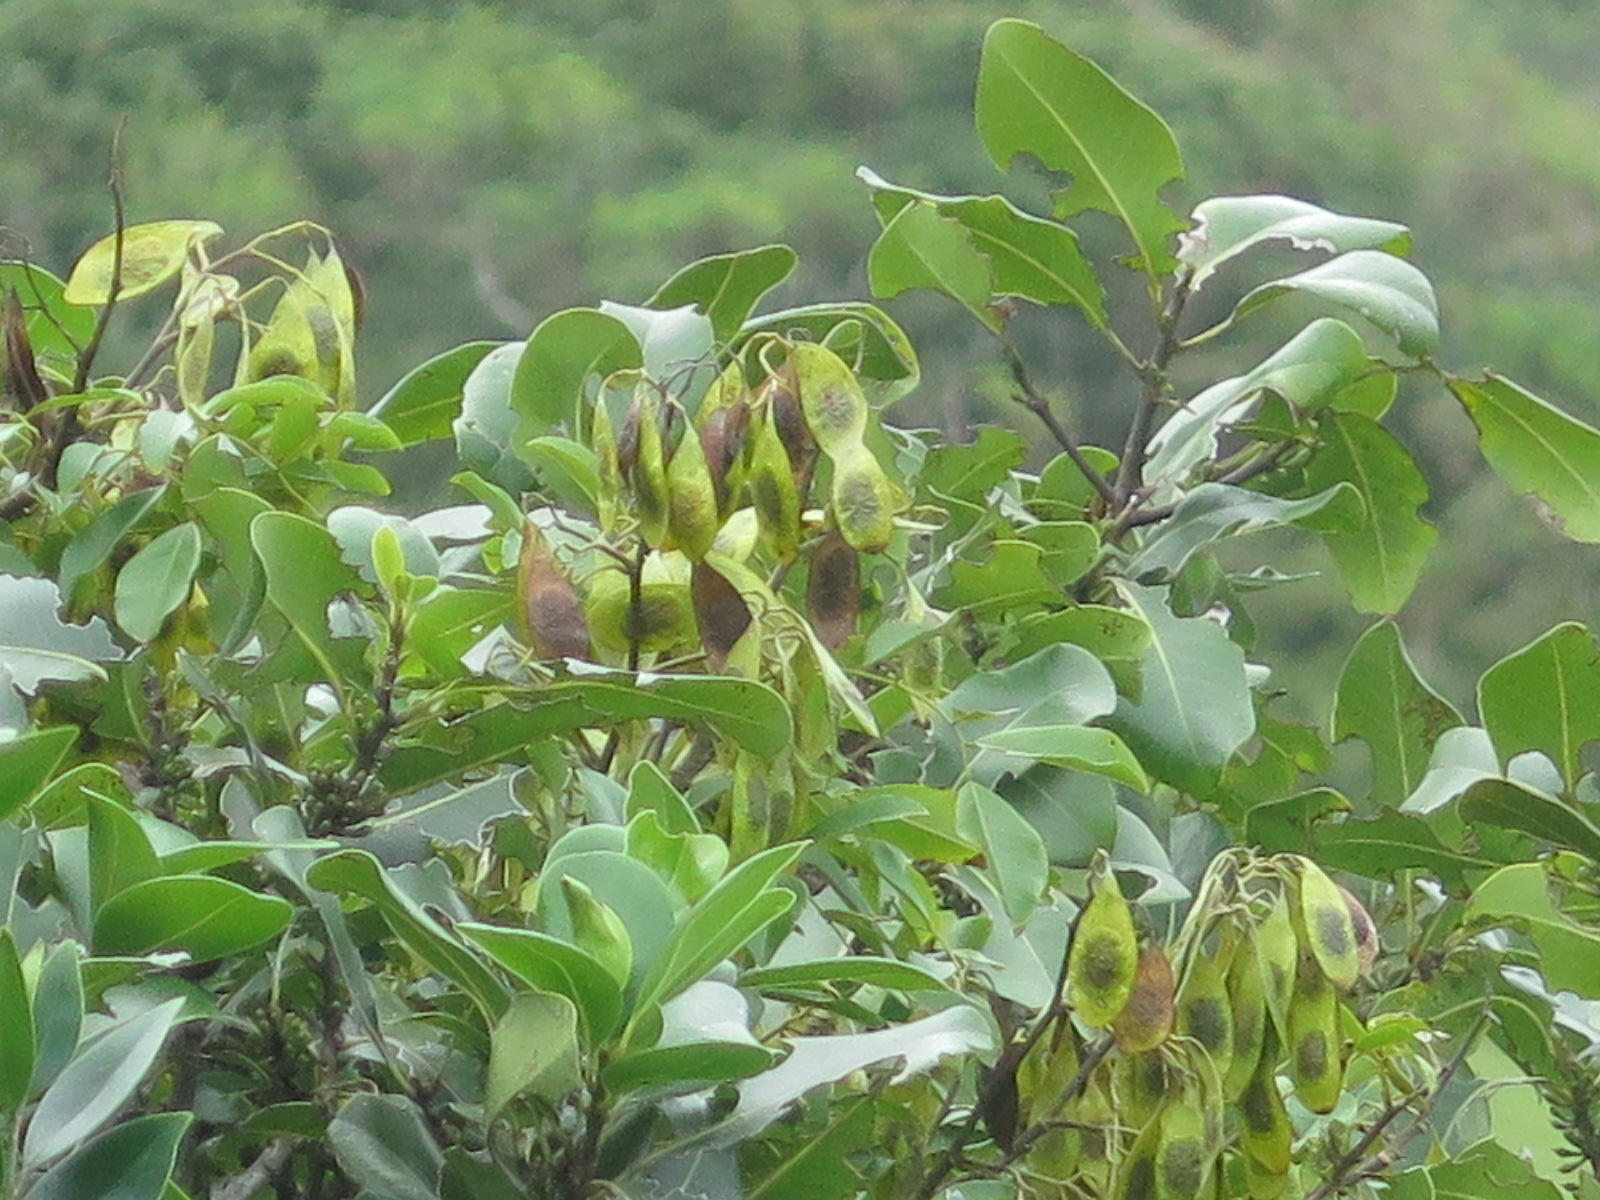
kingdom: Plantae
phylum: Tracheophyta
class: Magnoliopsida
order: Fabales
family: Fabaceae
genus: Dalbergia
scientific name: Dalbergia obovata
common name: Climbing flat-bean
